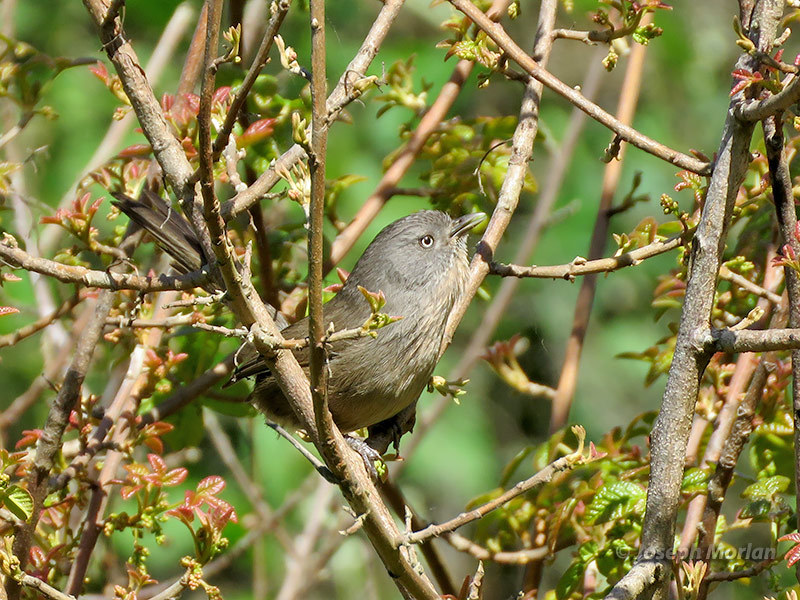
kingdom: Animalia
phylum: Chordata
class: Aves
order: Passeriformes
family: Sylviidae
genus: Chamaea
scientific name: Chamaea fasciata
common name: Wrentit
